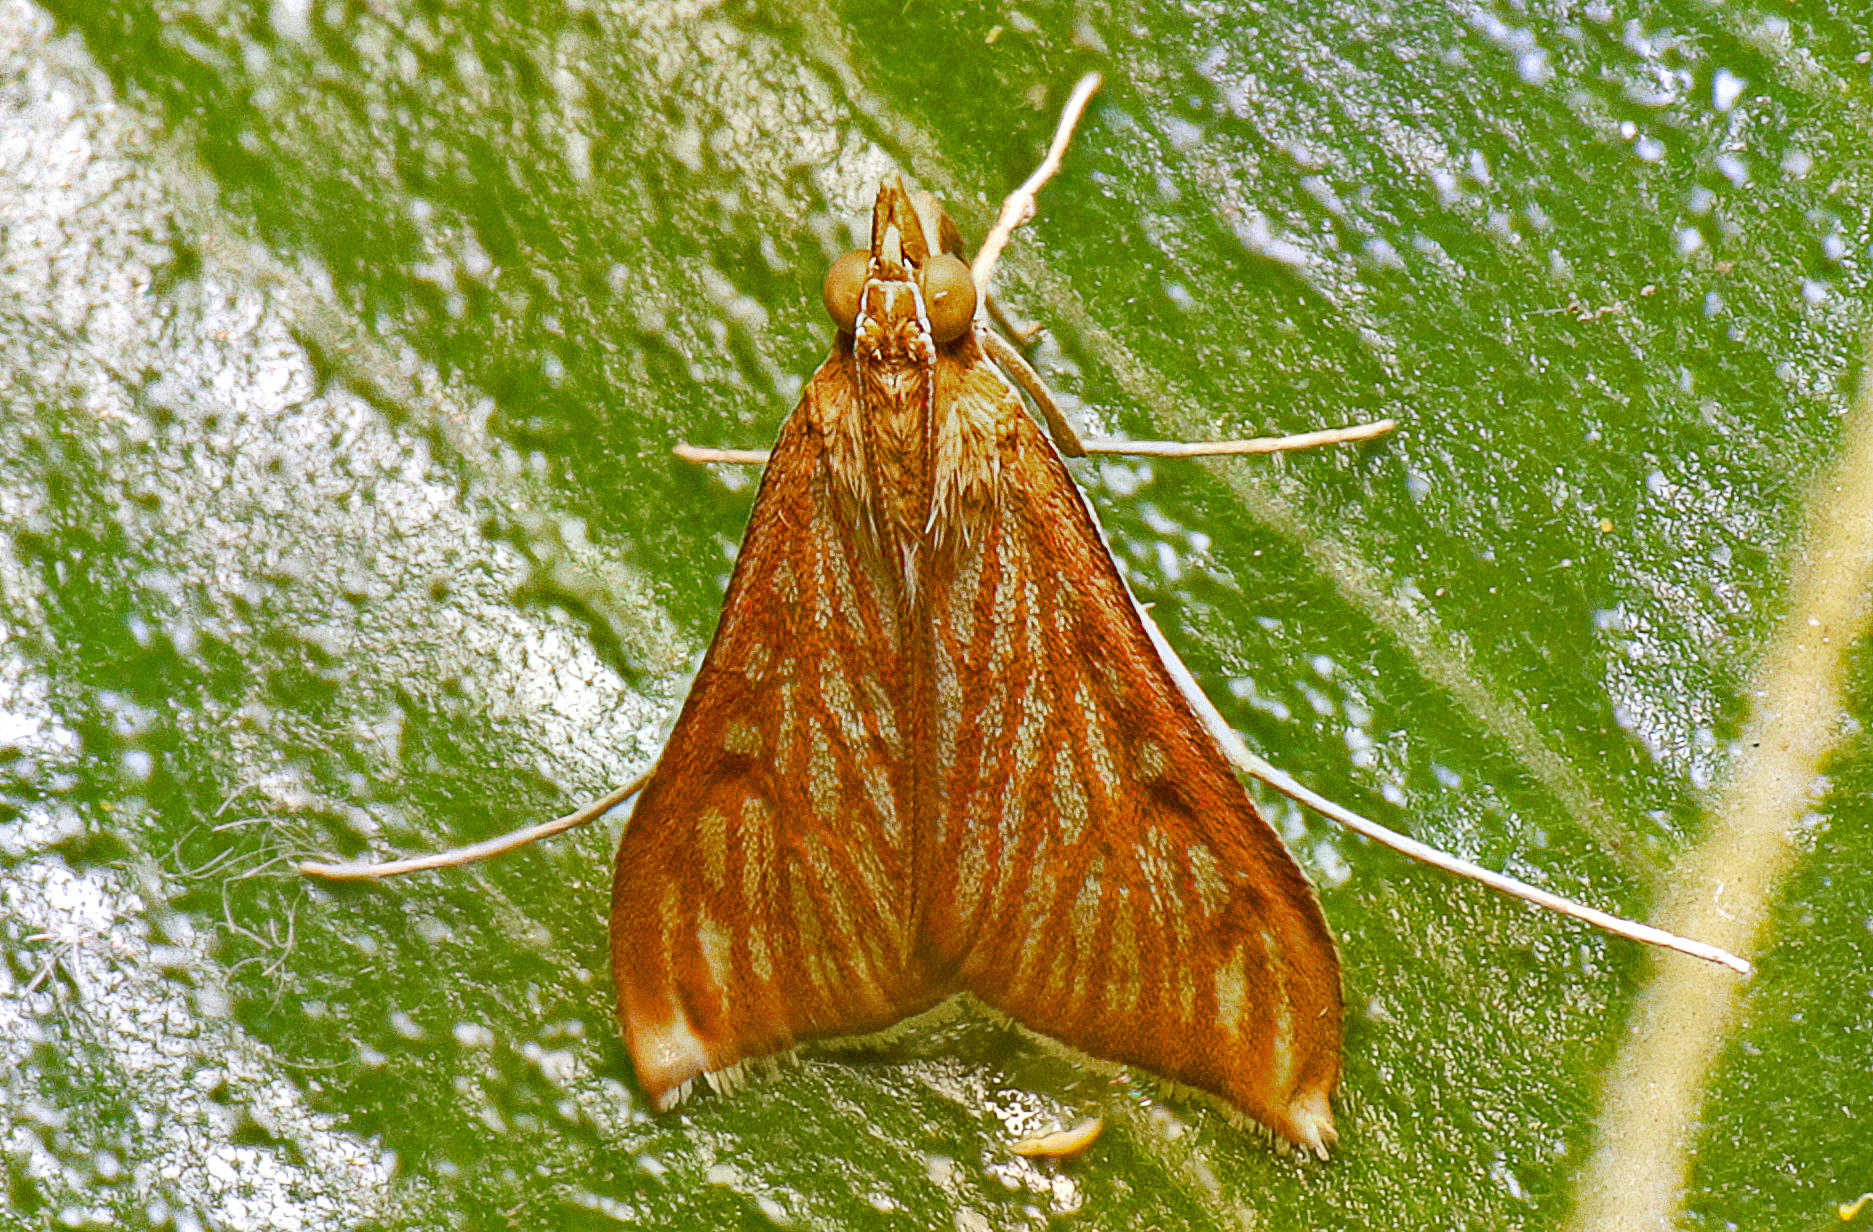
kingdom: Animalia
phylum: Arthropoda
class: Insecta
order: Lepidoptera
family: Crambidae
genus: Antigastra
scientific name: Antigastra catalaunalis
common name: Spanish dot
